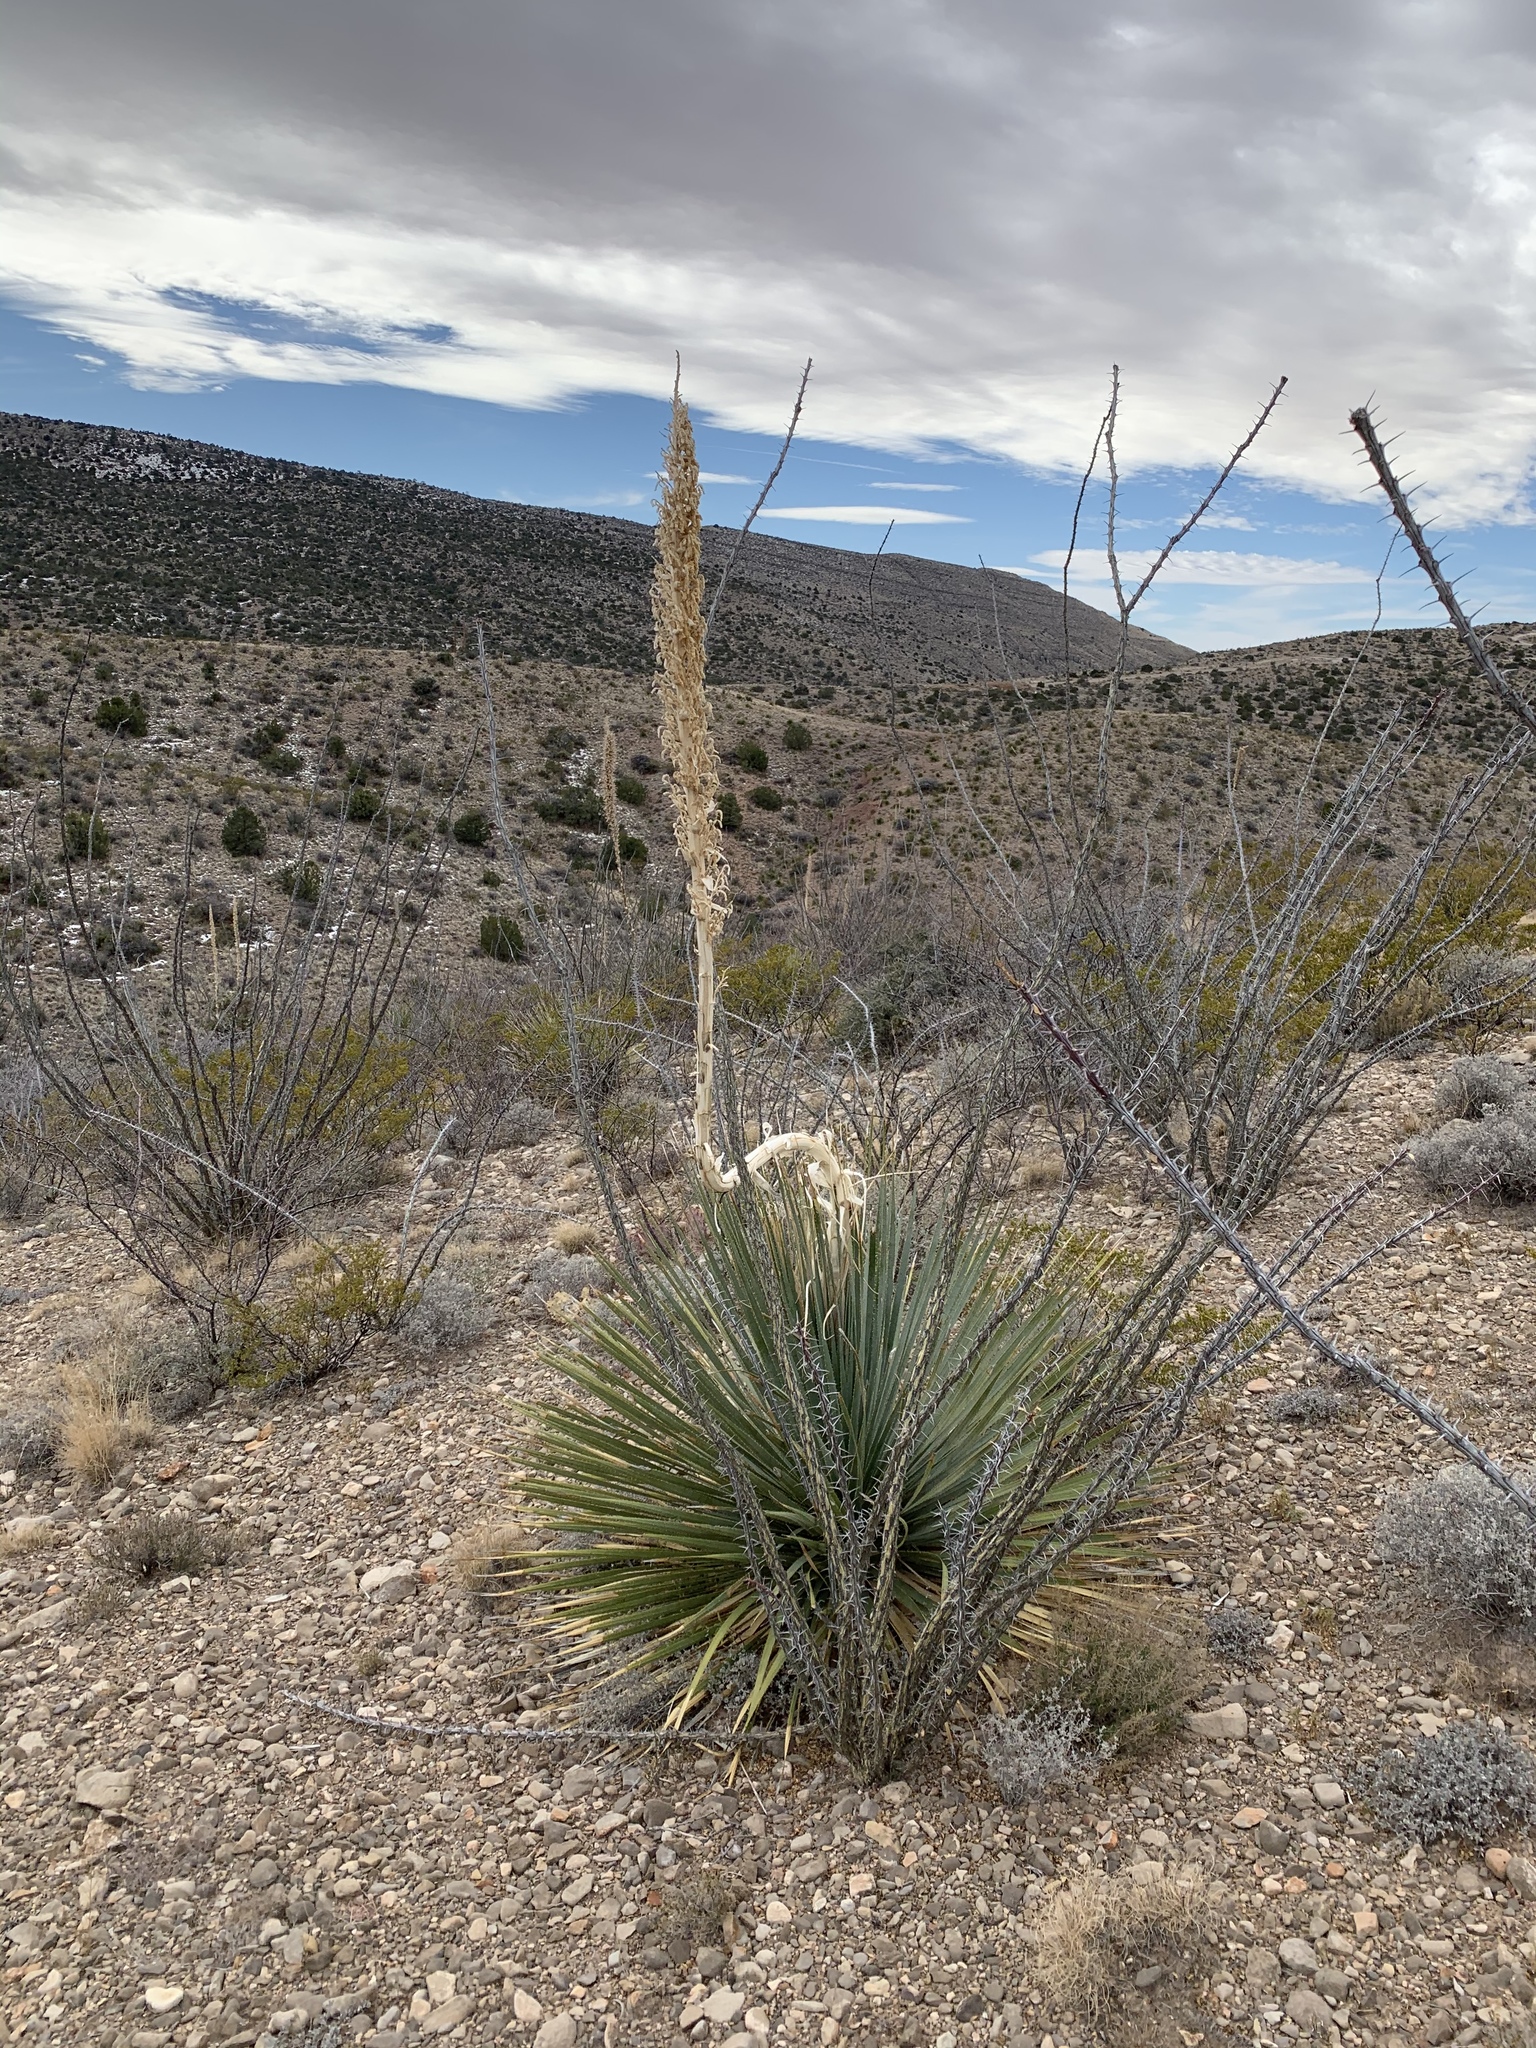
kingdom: Plantae
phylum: Tracheophyta
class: Magnoliopsida
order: Ericales
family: Fouquieriaceae
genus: Fouquieria
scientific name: Fouquieria splendens
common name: Vine-cactus
